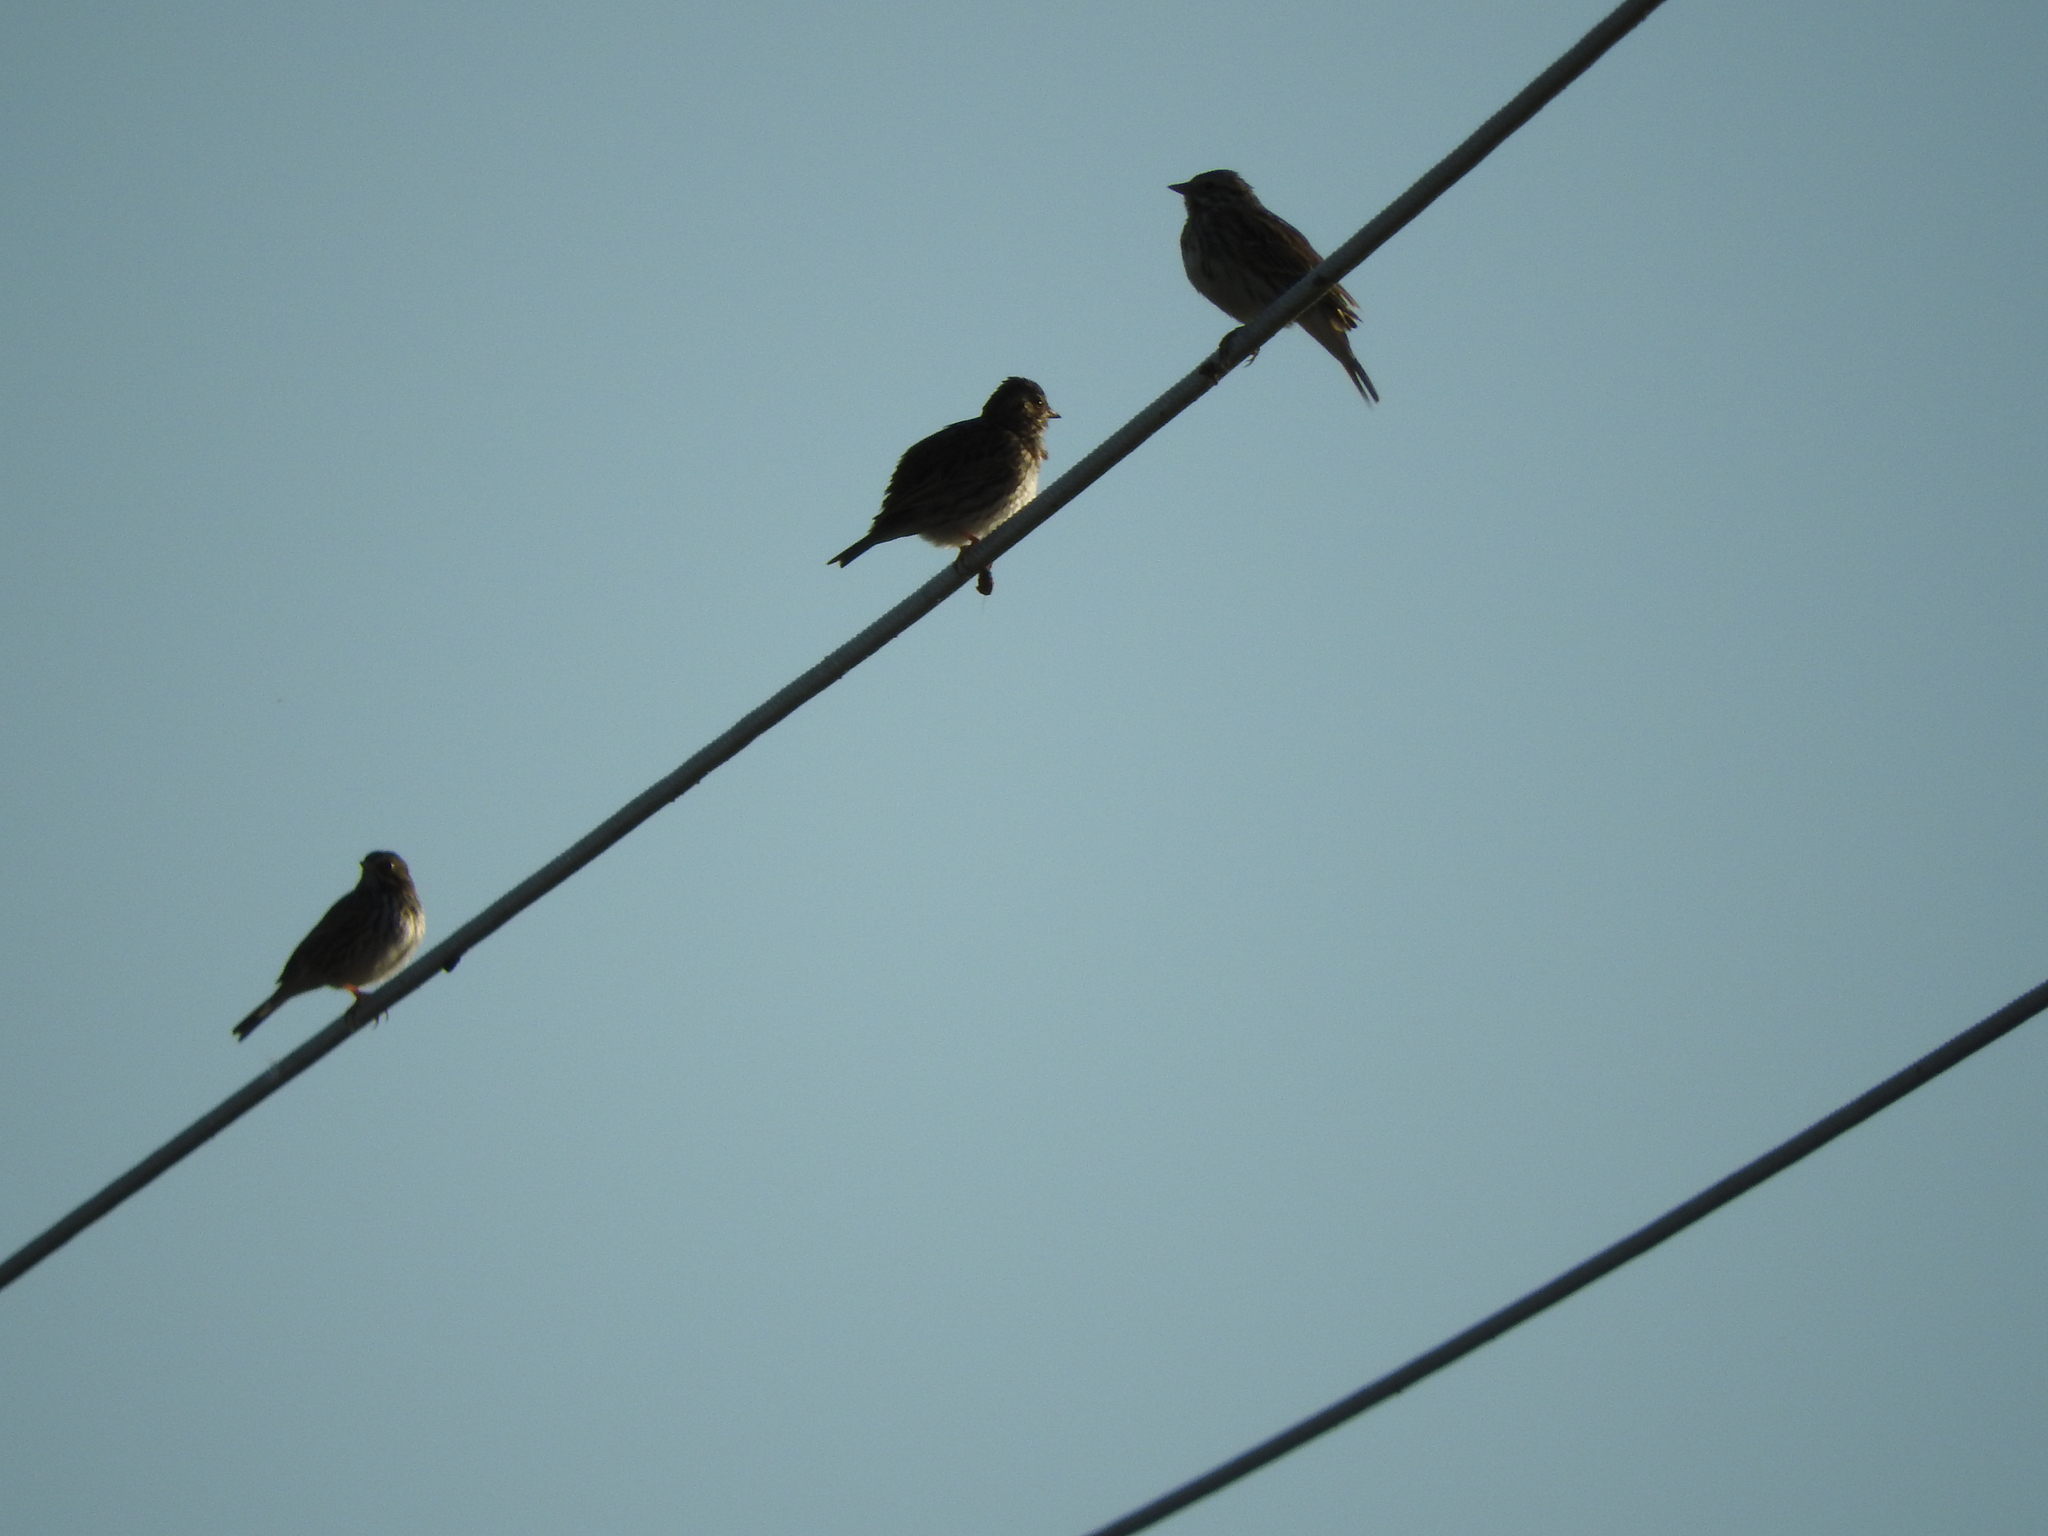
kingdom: Animalia
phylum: Chordata
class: Aves
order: Passeriformes
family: Fringillidae
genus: Haemorhous
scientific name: Haemorhous mexicanus
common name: House finch
